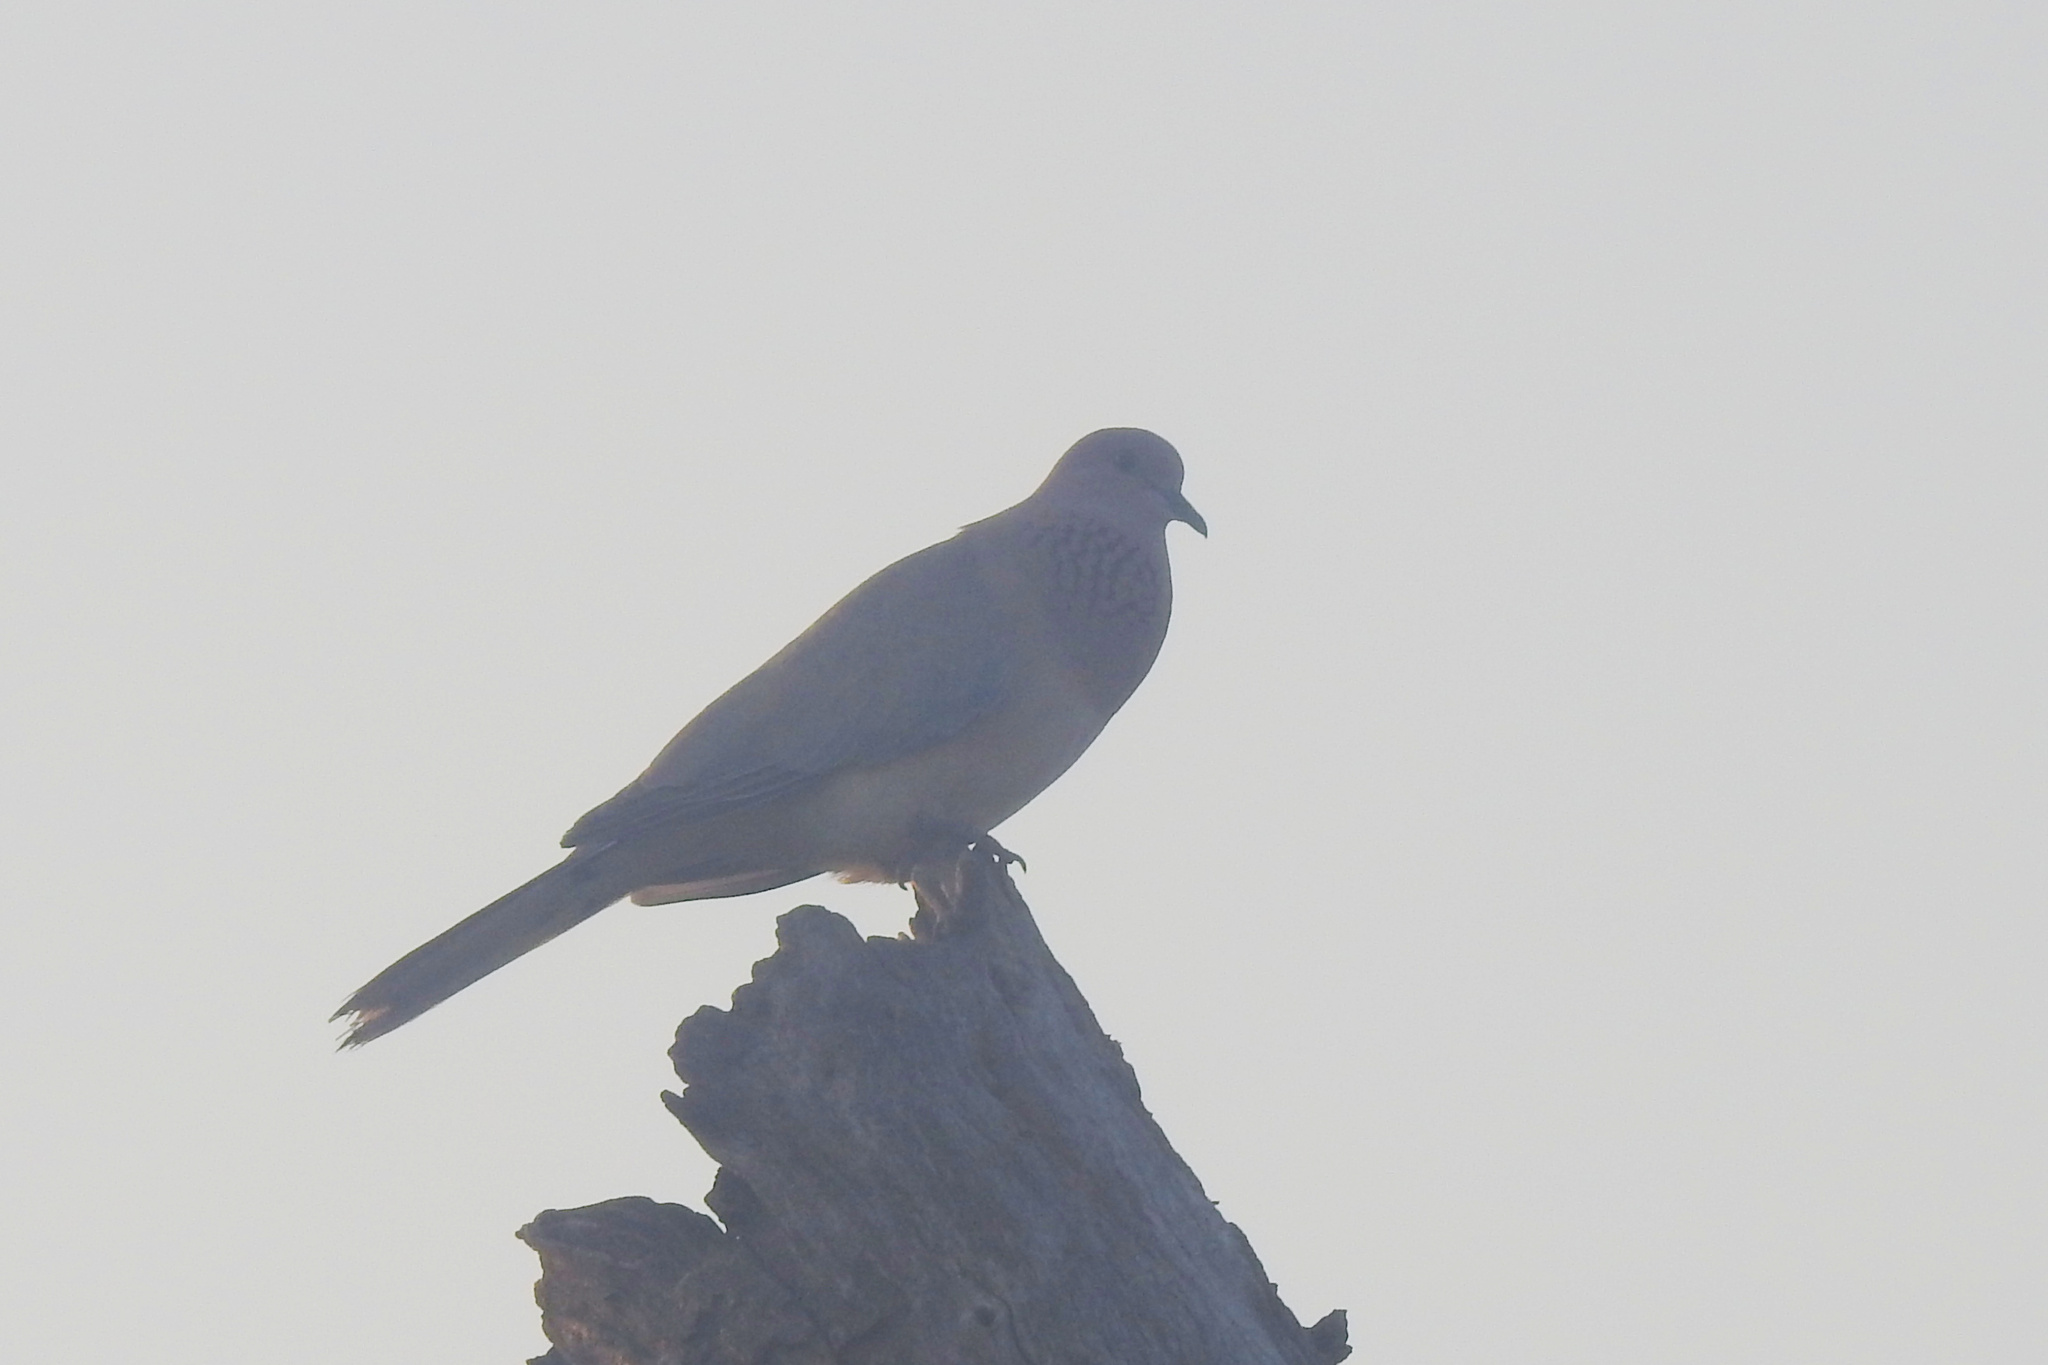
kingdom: Animalia
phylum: Chordata
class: Aves
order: Columbiformes
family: Columbidae
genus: Spilopelia
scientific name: Spilopelia senegalensis
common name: Laughing dove
